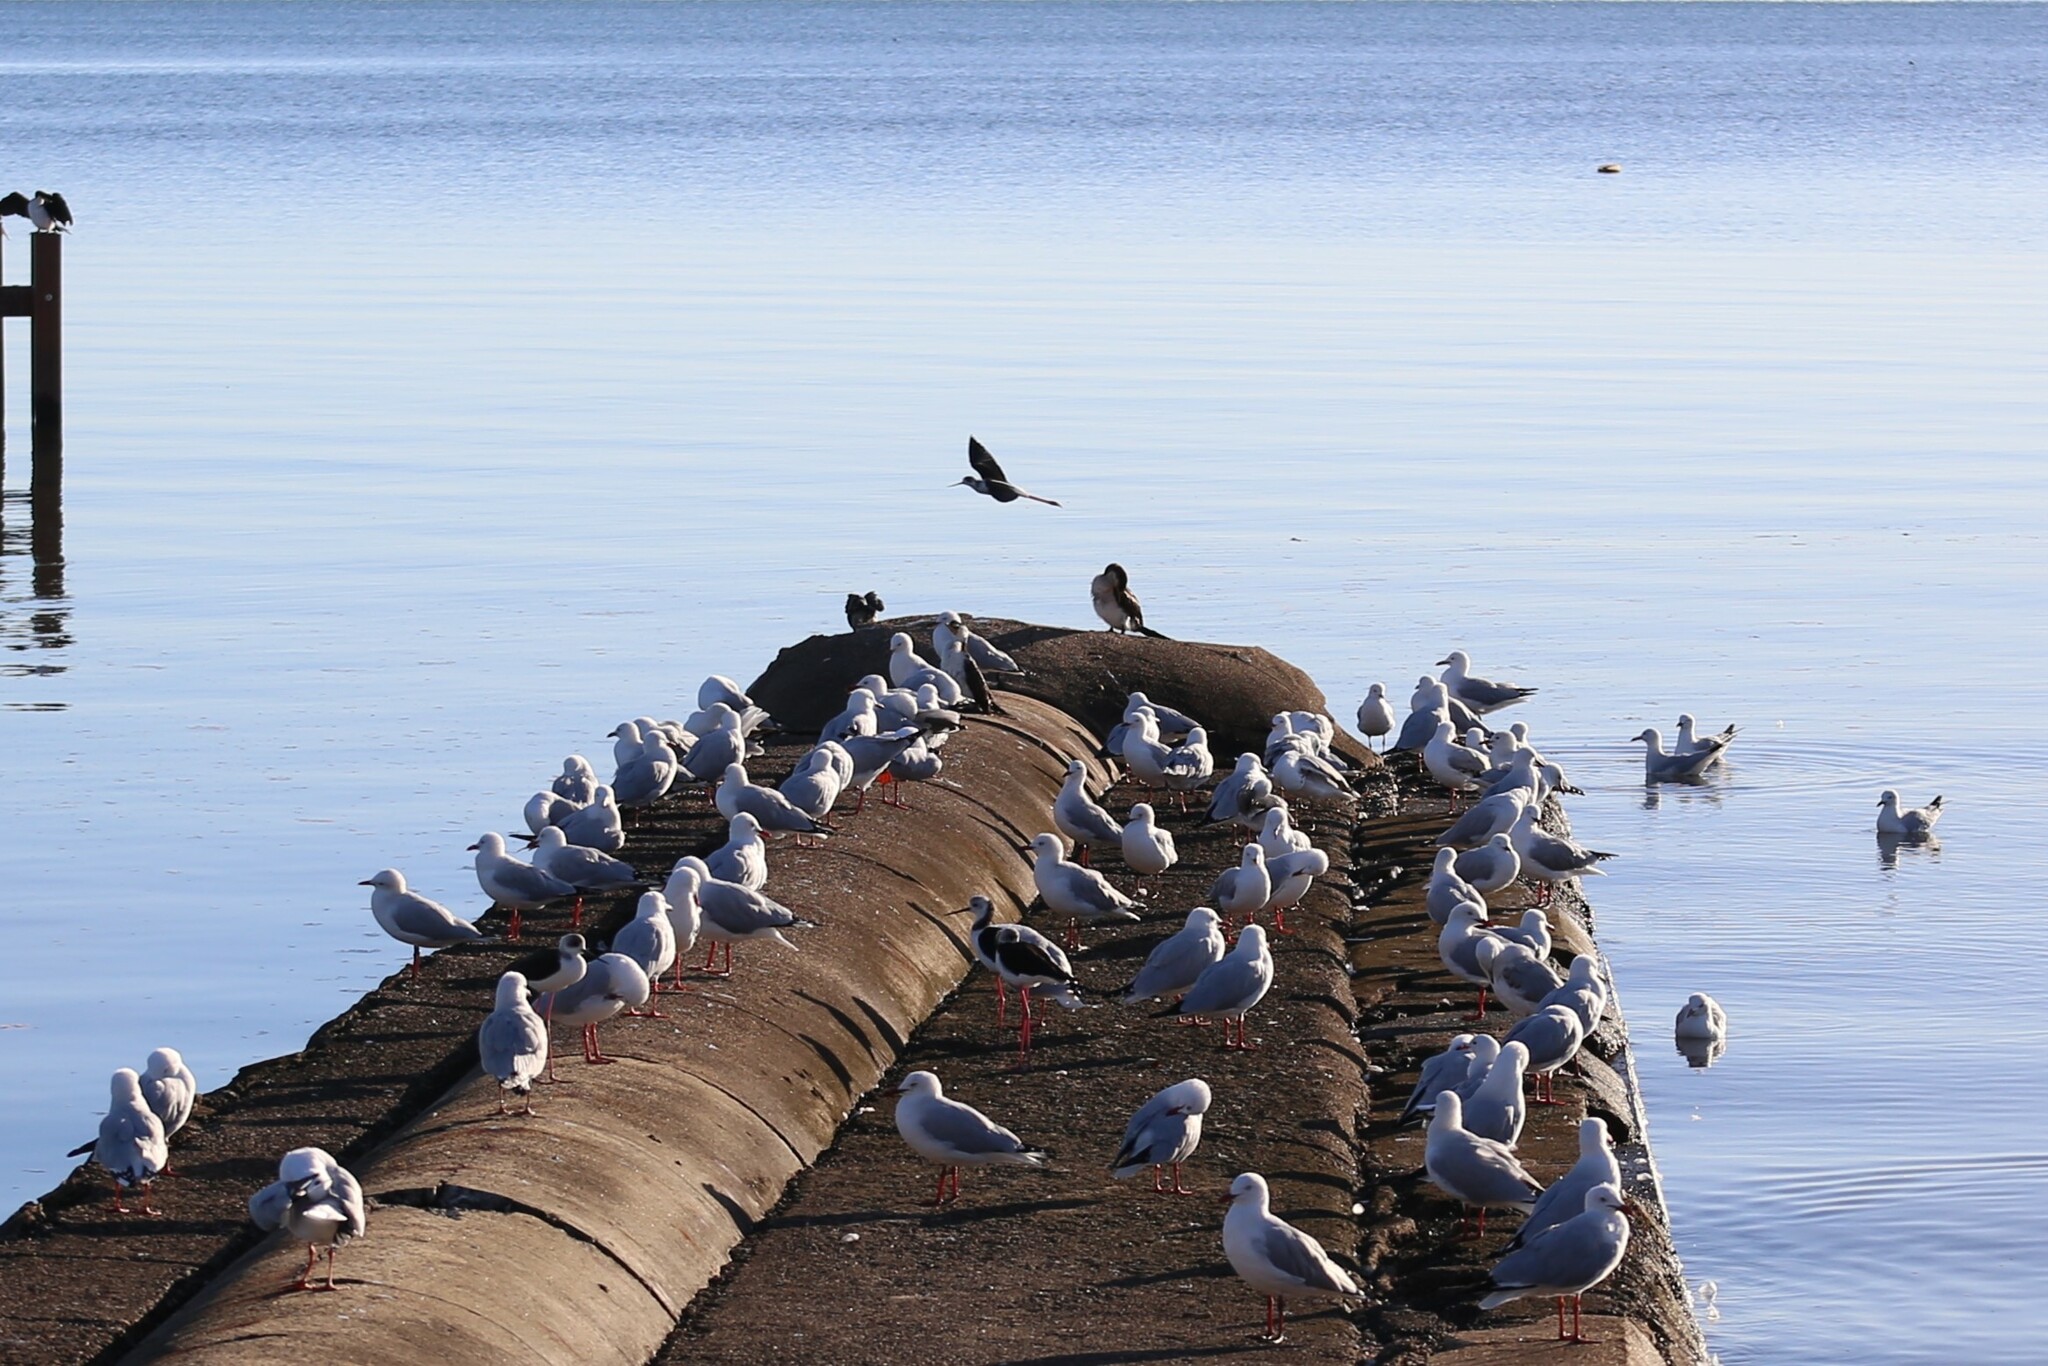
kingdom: Animalia
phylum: Chordata
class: Aves
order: Charadriiformes
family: Laridae
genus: Chroicocephalus
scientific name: Chroicocephalus novaehollandiae
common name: Silver gull
